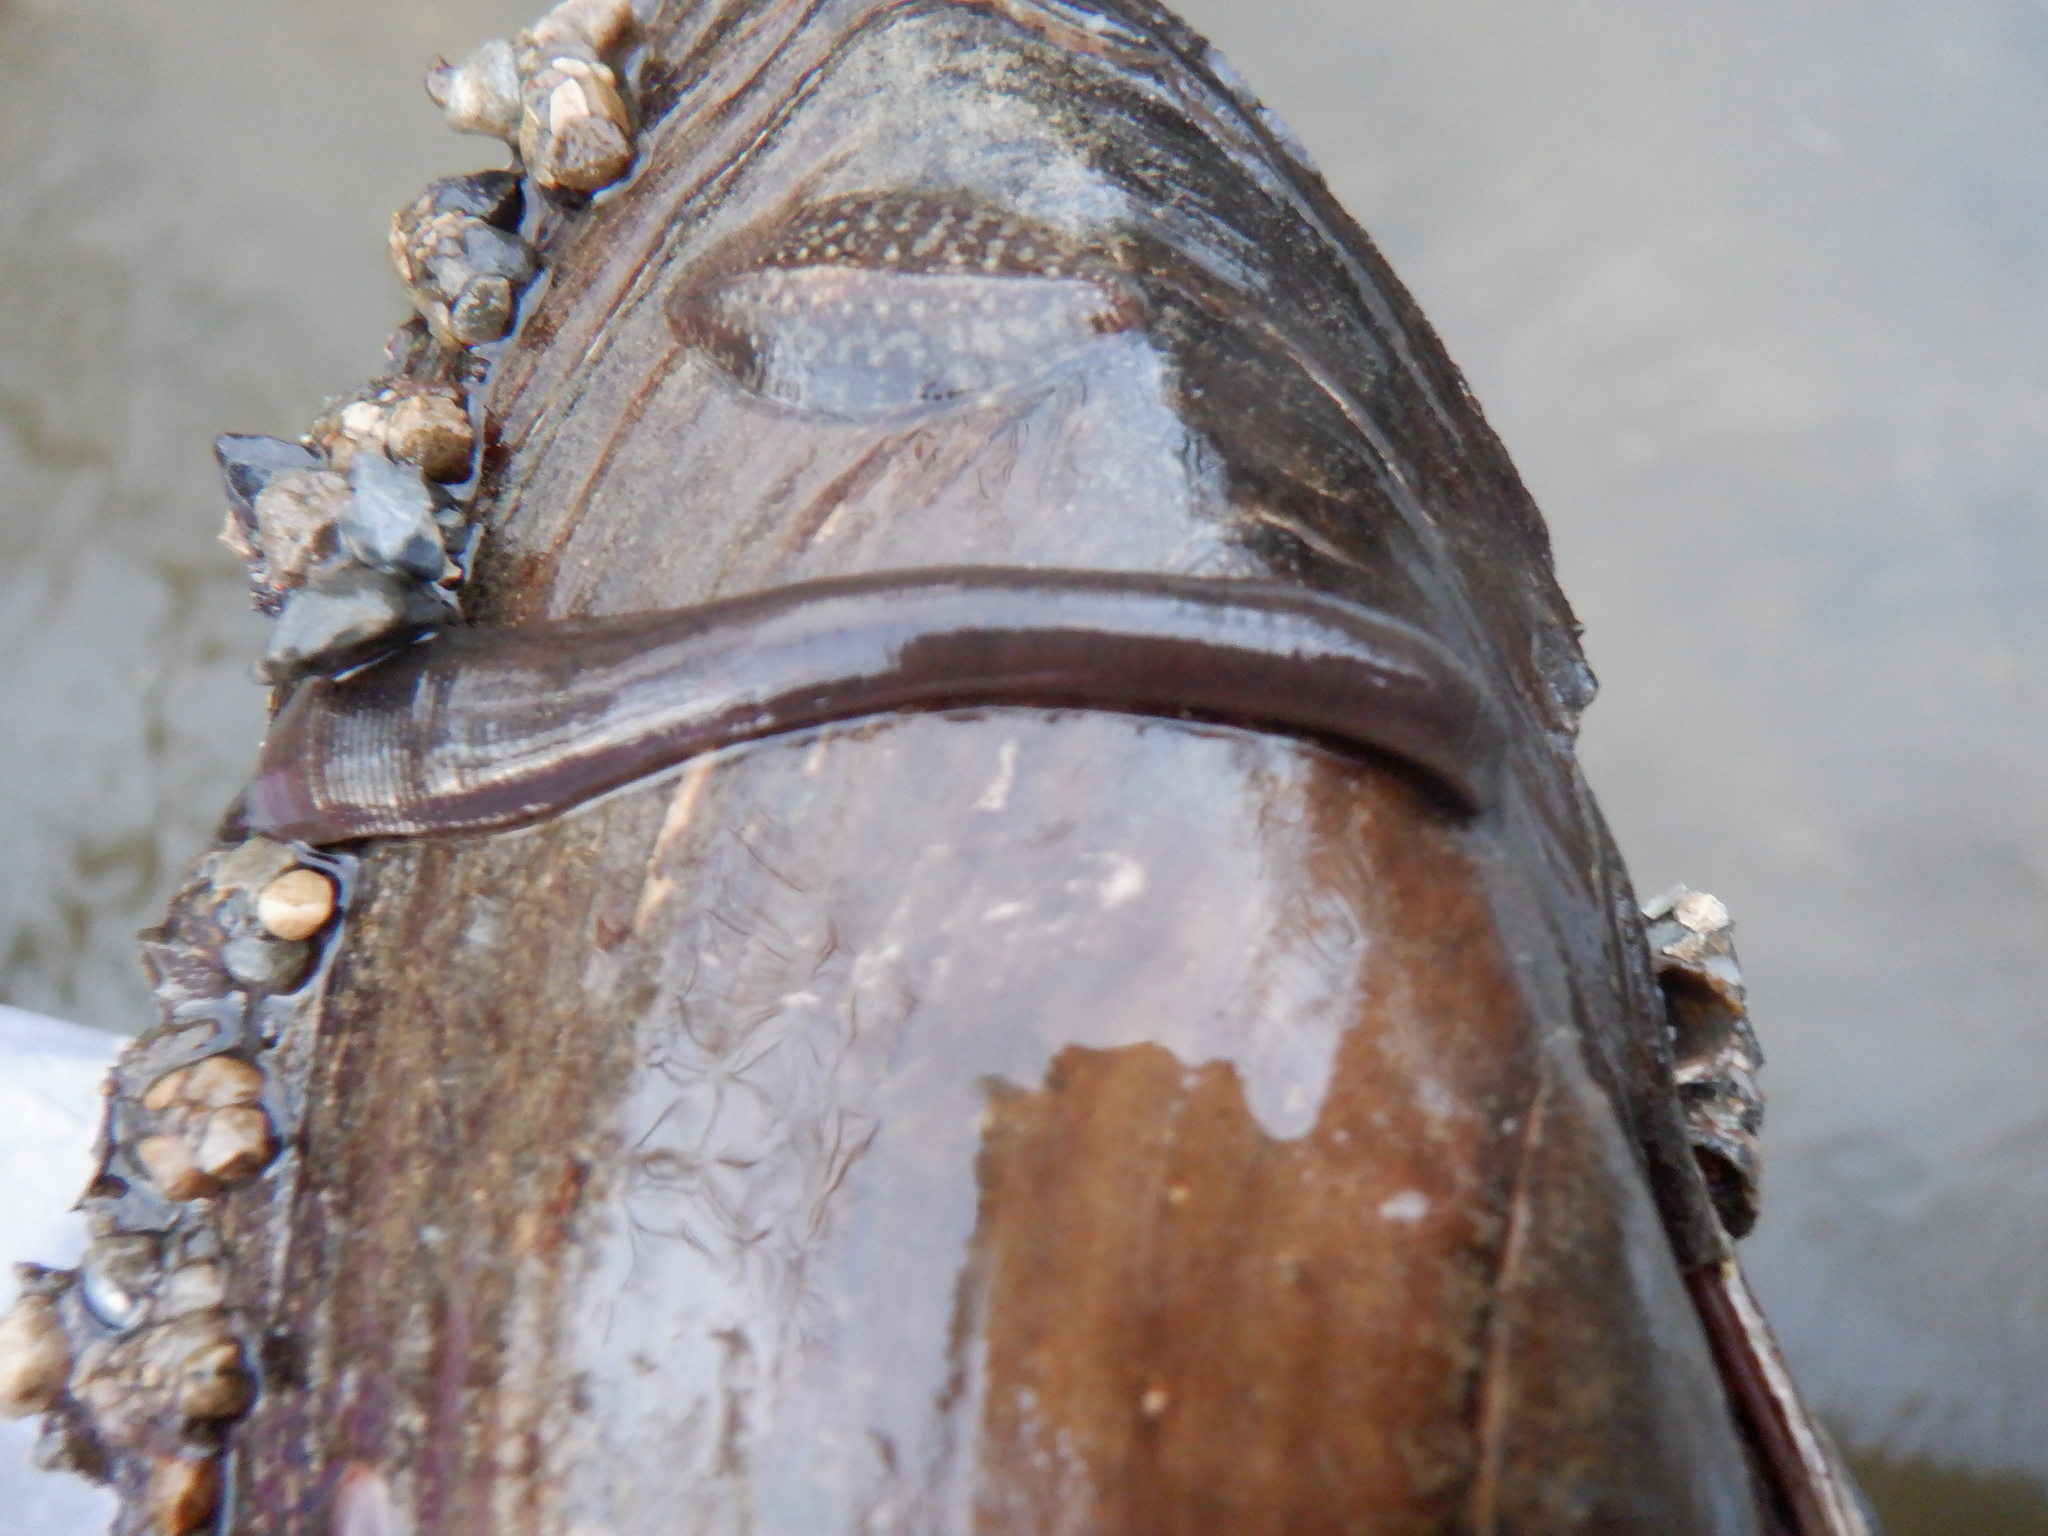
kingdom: Animalia
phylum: Annelida
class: Clitellata
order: Rhynchobdellida
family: Glossiphoniidae
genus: Placobdella
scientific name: Placobdella parasitica
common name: Smooth turtle leech
